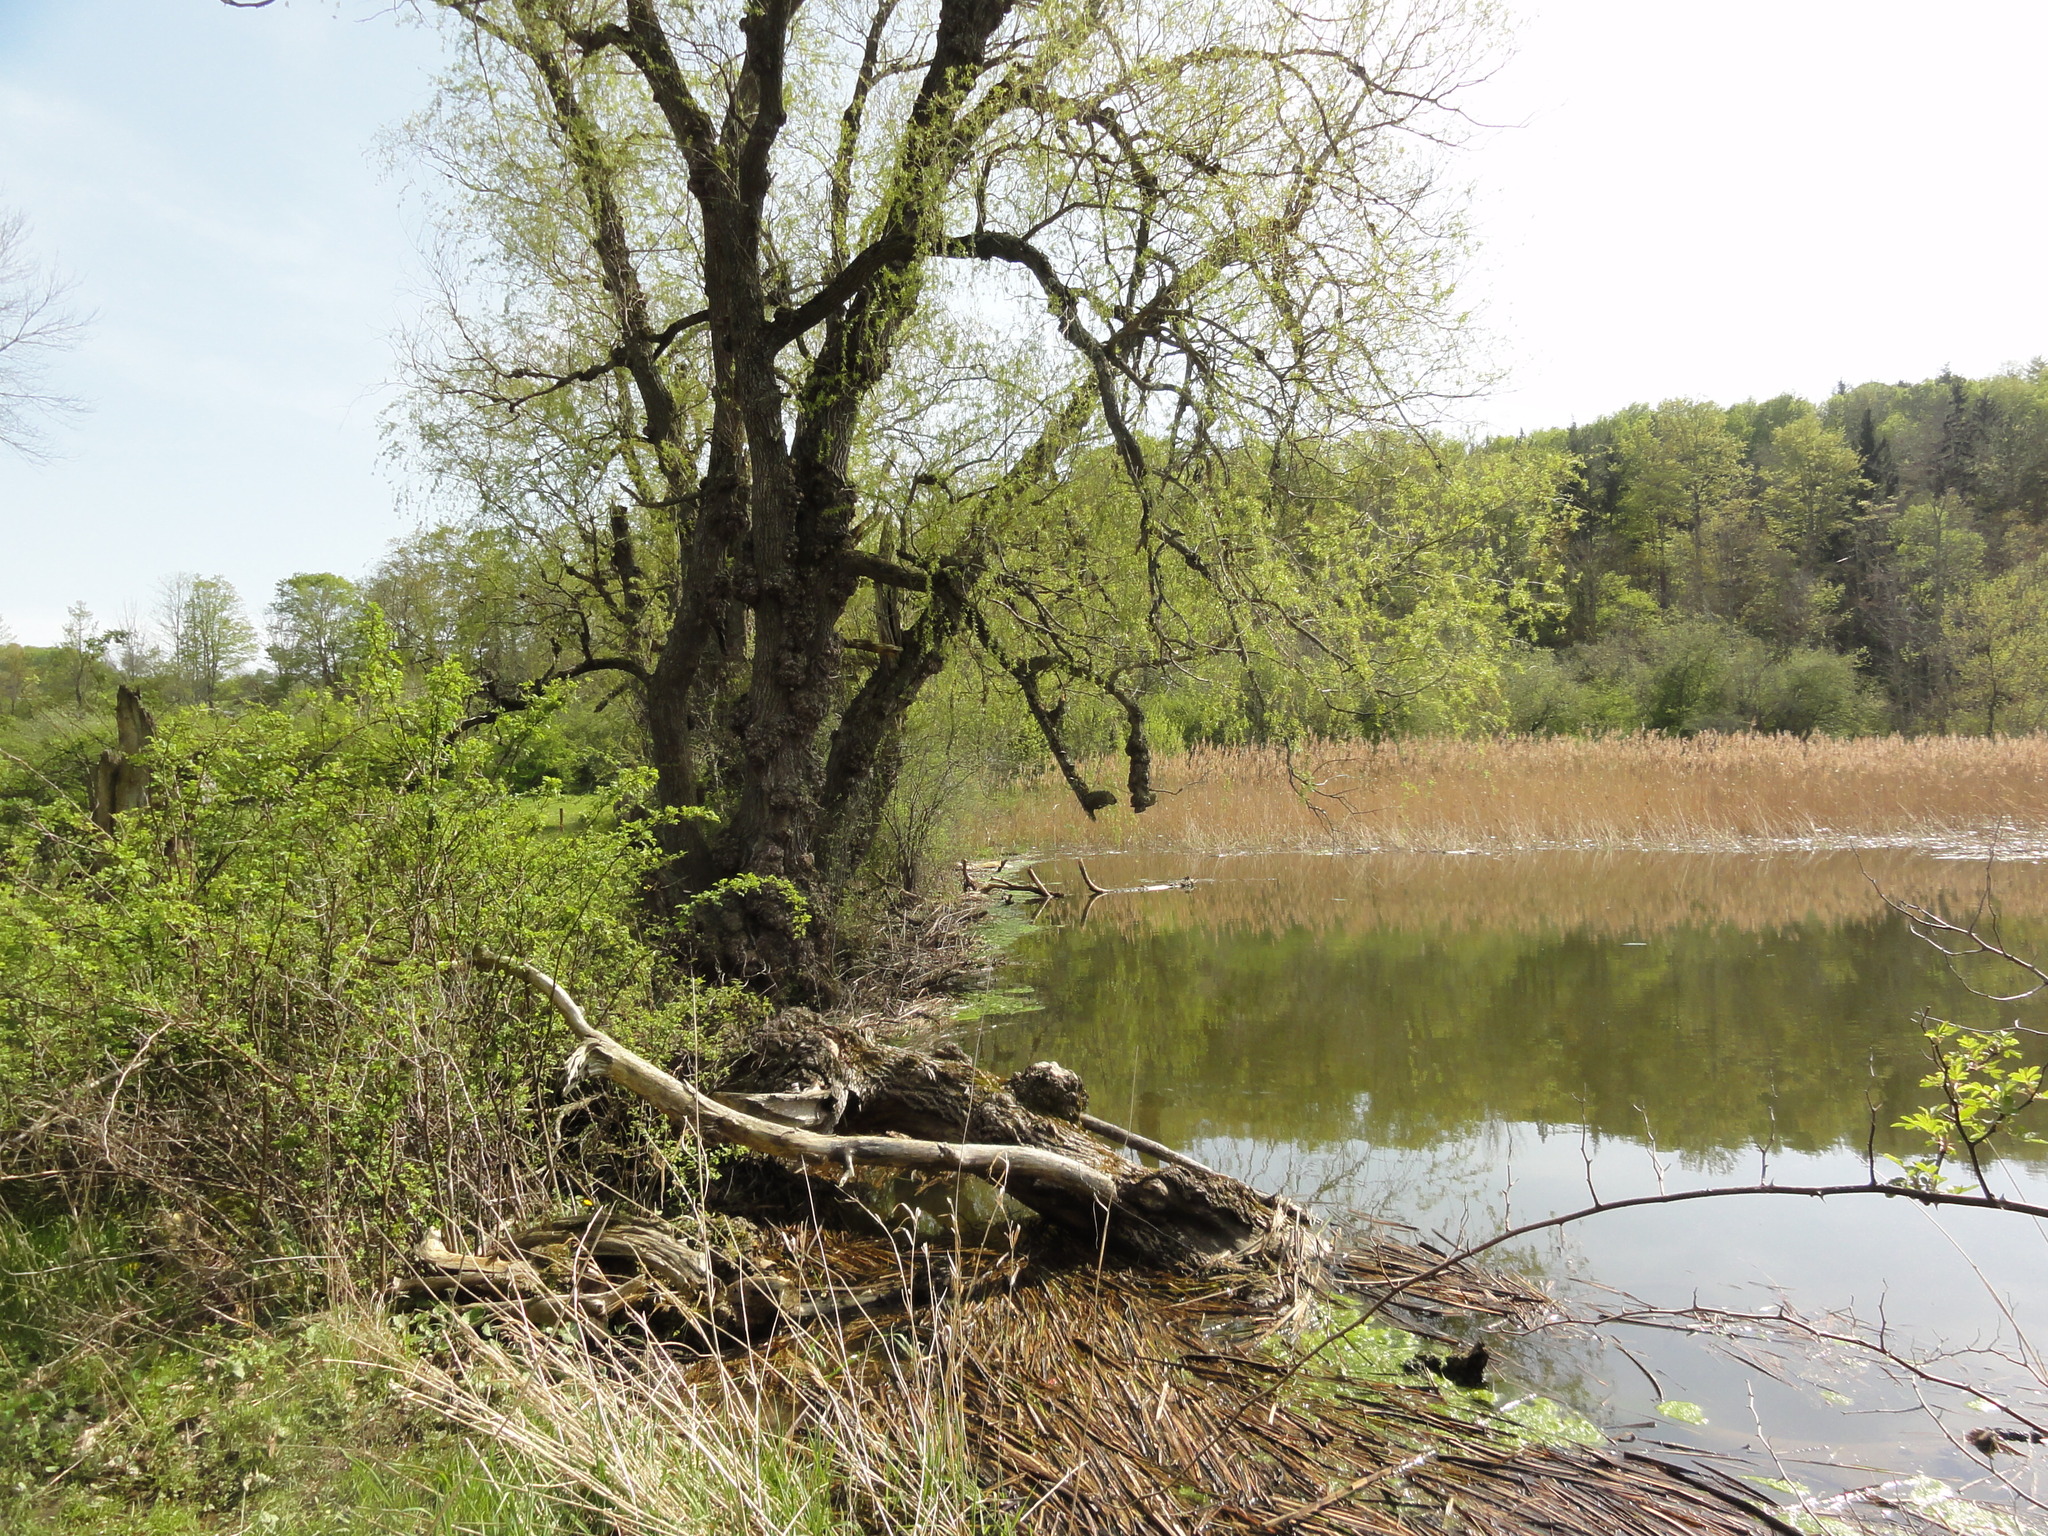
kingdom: Plantae
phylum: Tracheophyta
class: Liliopsida
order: Poales
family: Poaceae
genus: Phragmites
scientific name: Phragmites australis
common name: Common reed
